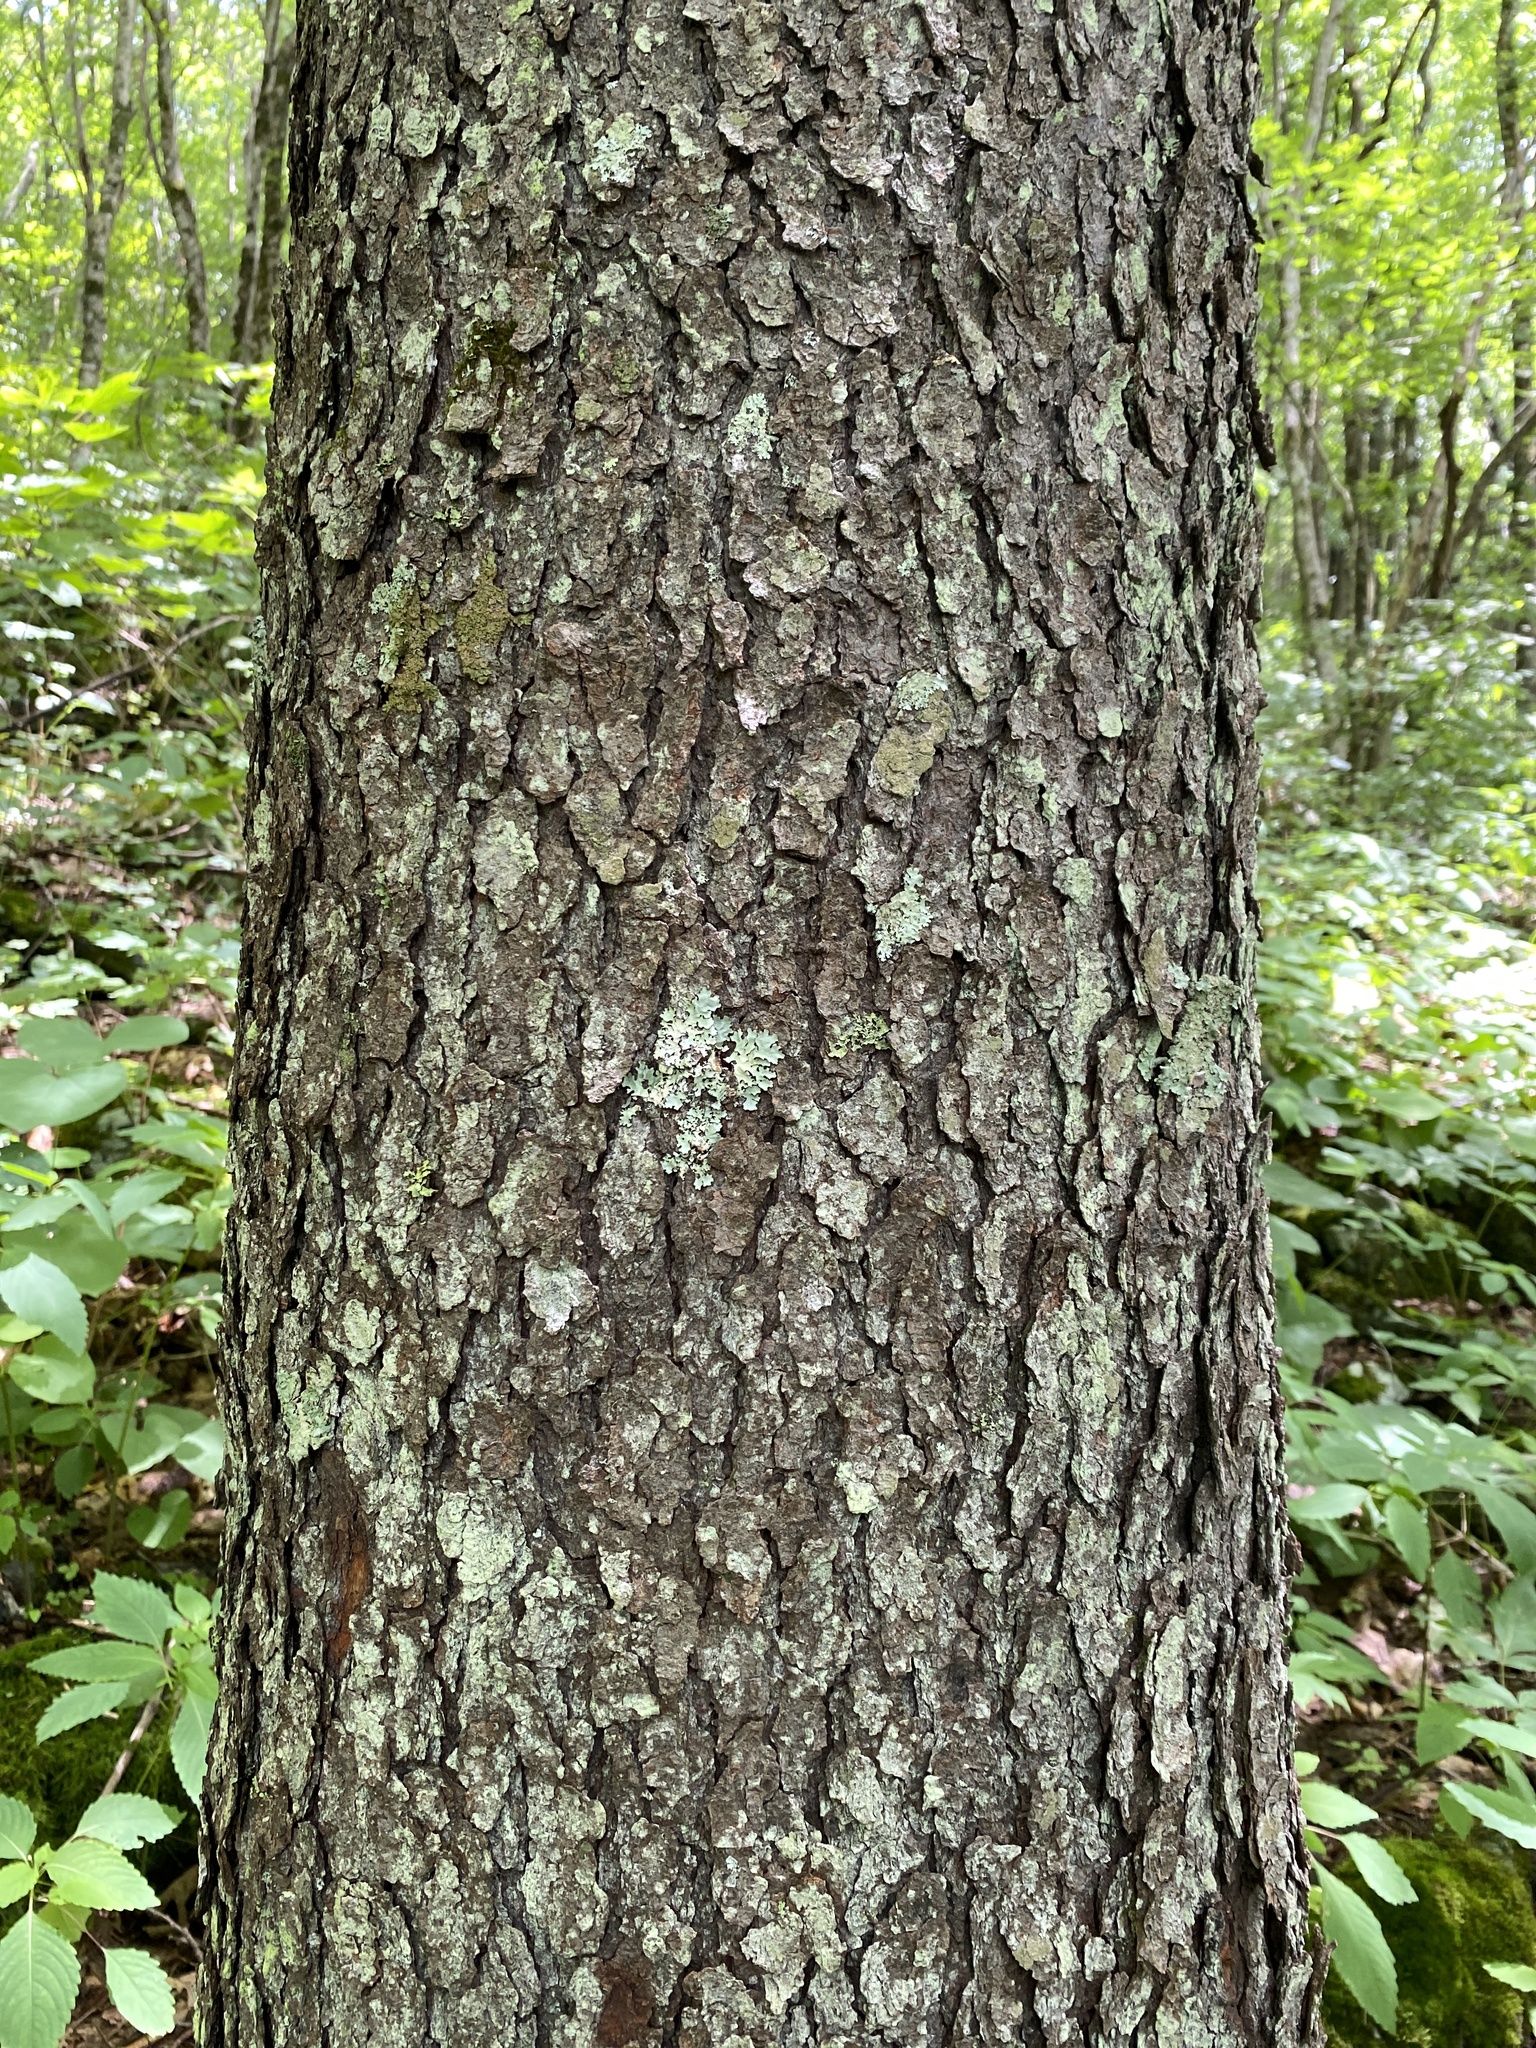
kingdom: Plantae
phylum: Tracheophyta
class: Magnoliopsida
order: Rosales
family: Rosaceae
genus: Prunus
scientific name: Prunus serotina
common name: Black cherry
